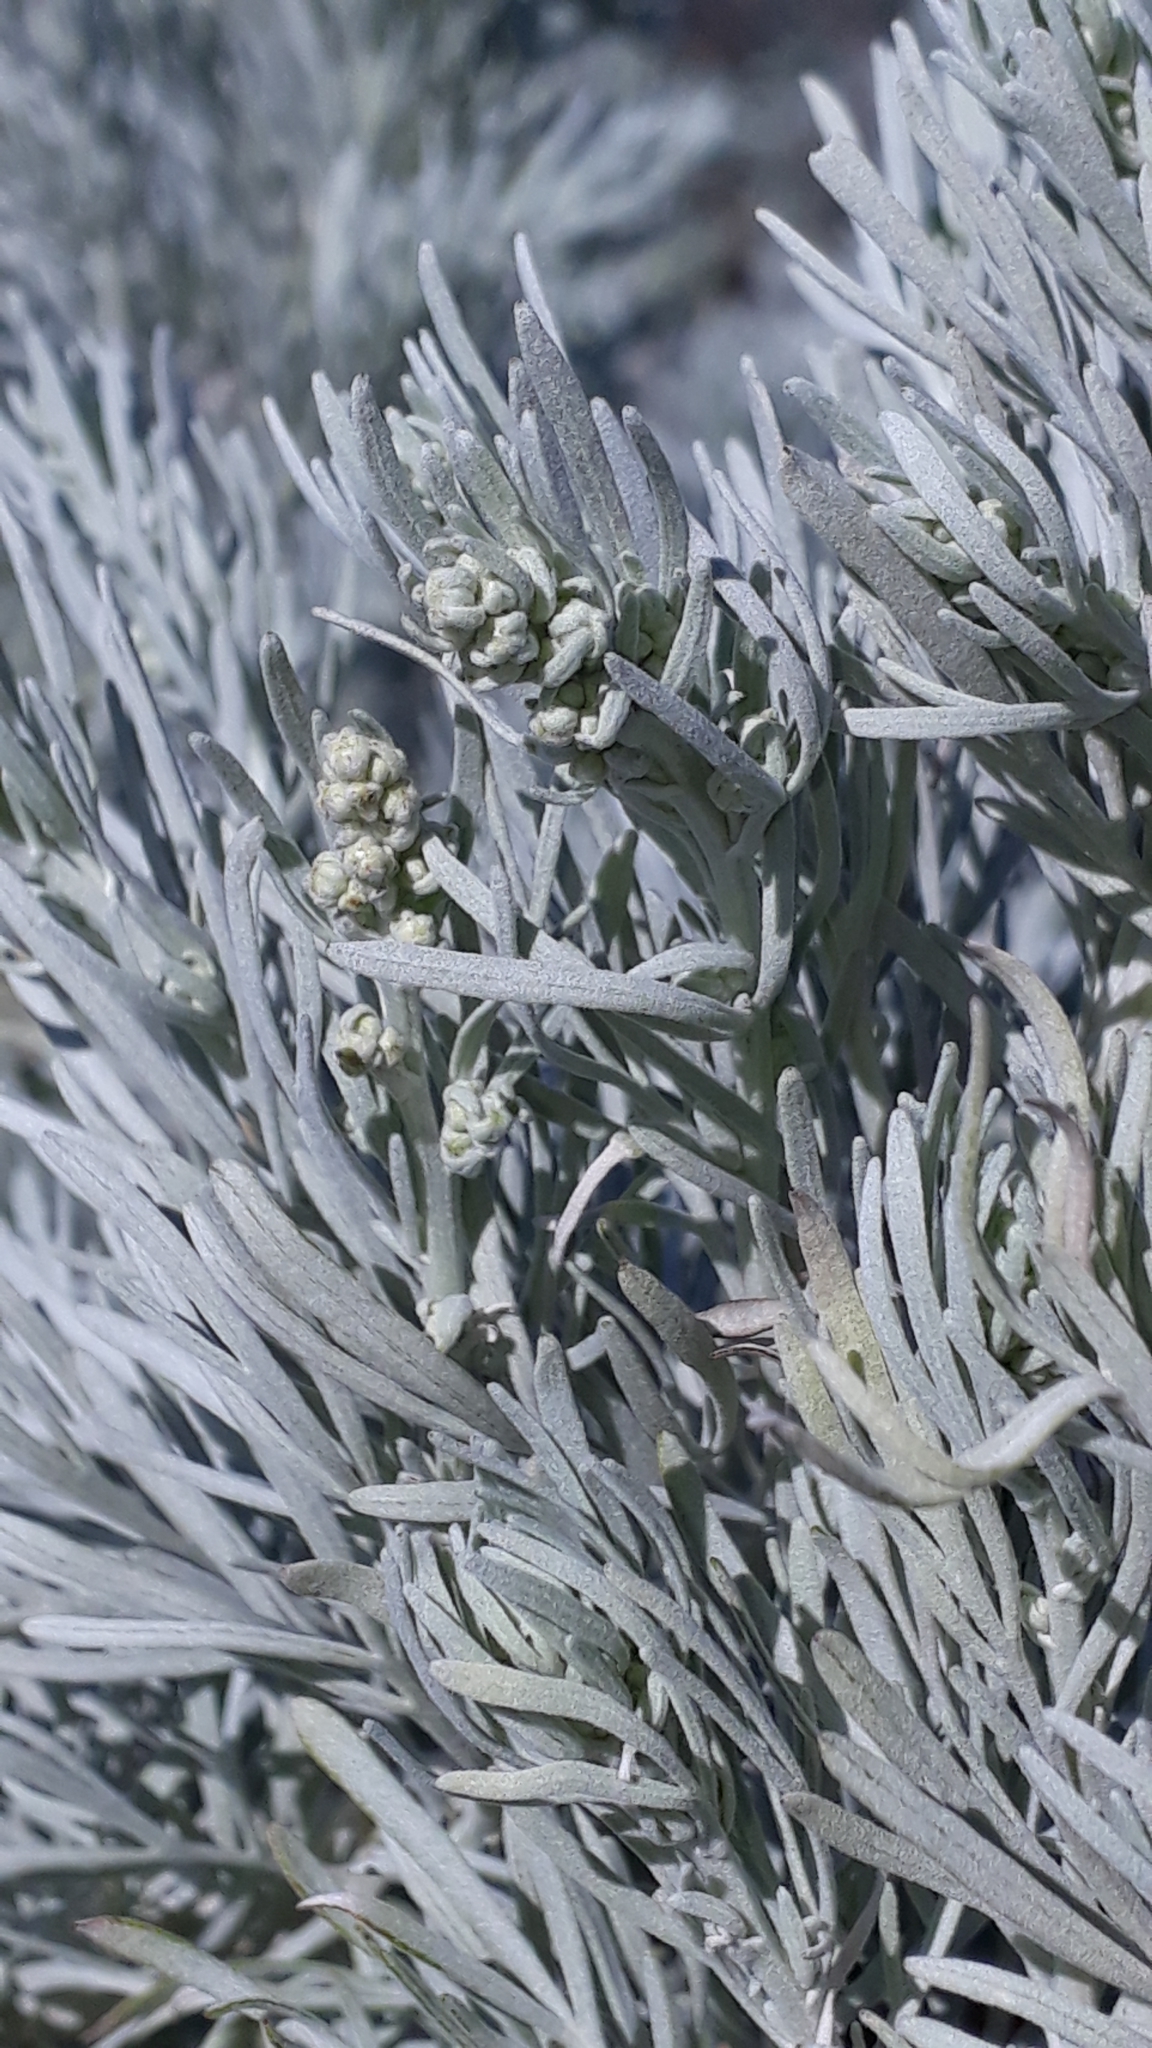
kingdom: Plantae
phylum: Tracheophyta
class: Magnoliopsida
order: Asterales
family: Asteraceae
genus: Artemisia
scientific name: Artemisia arborescens
